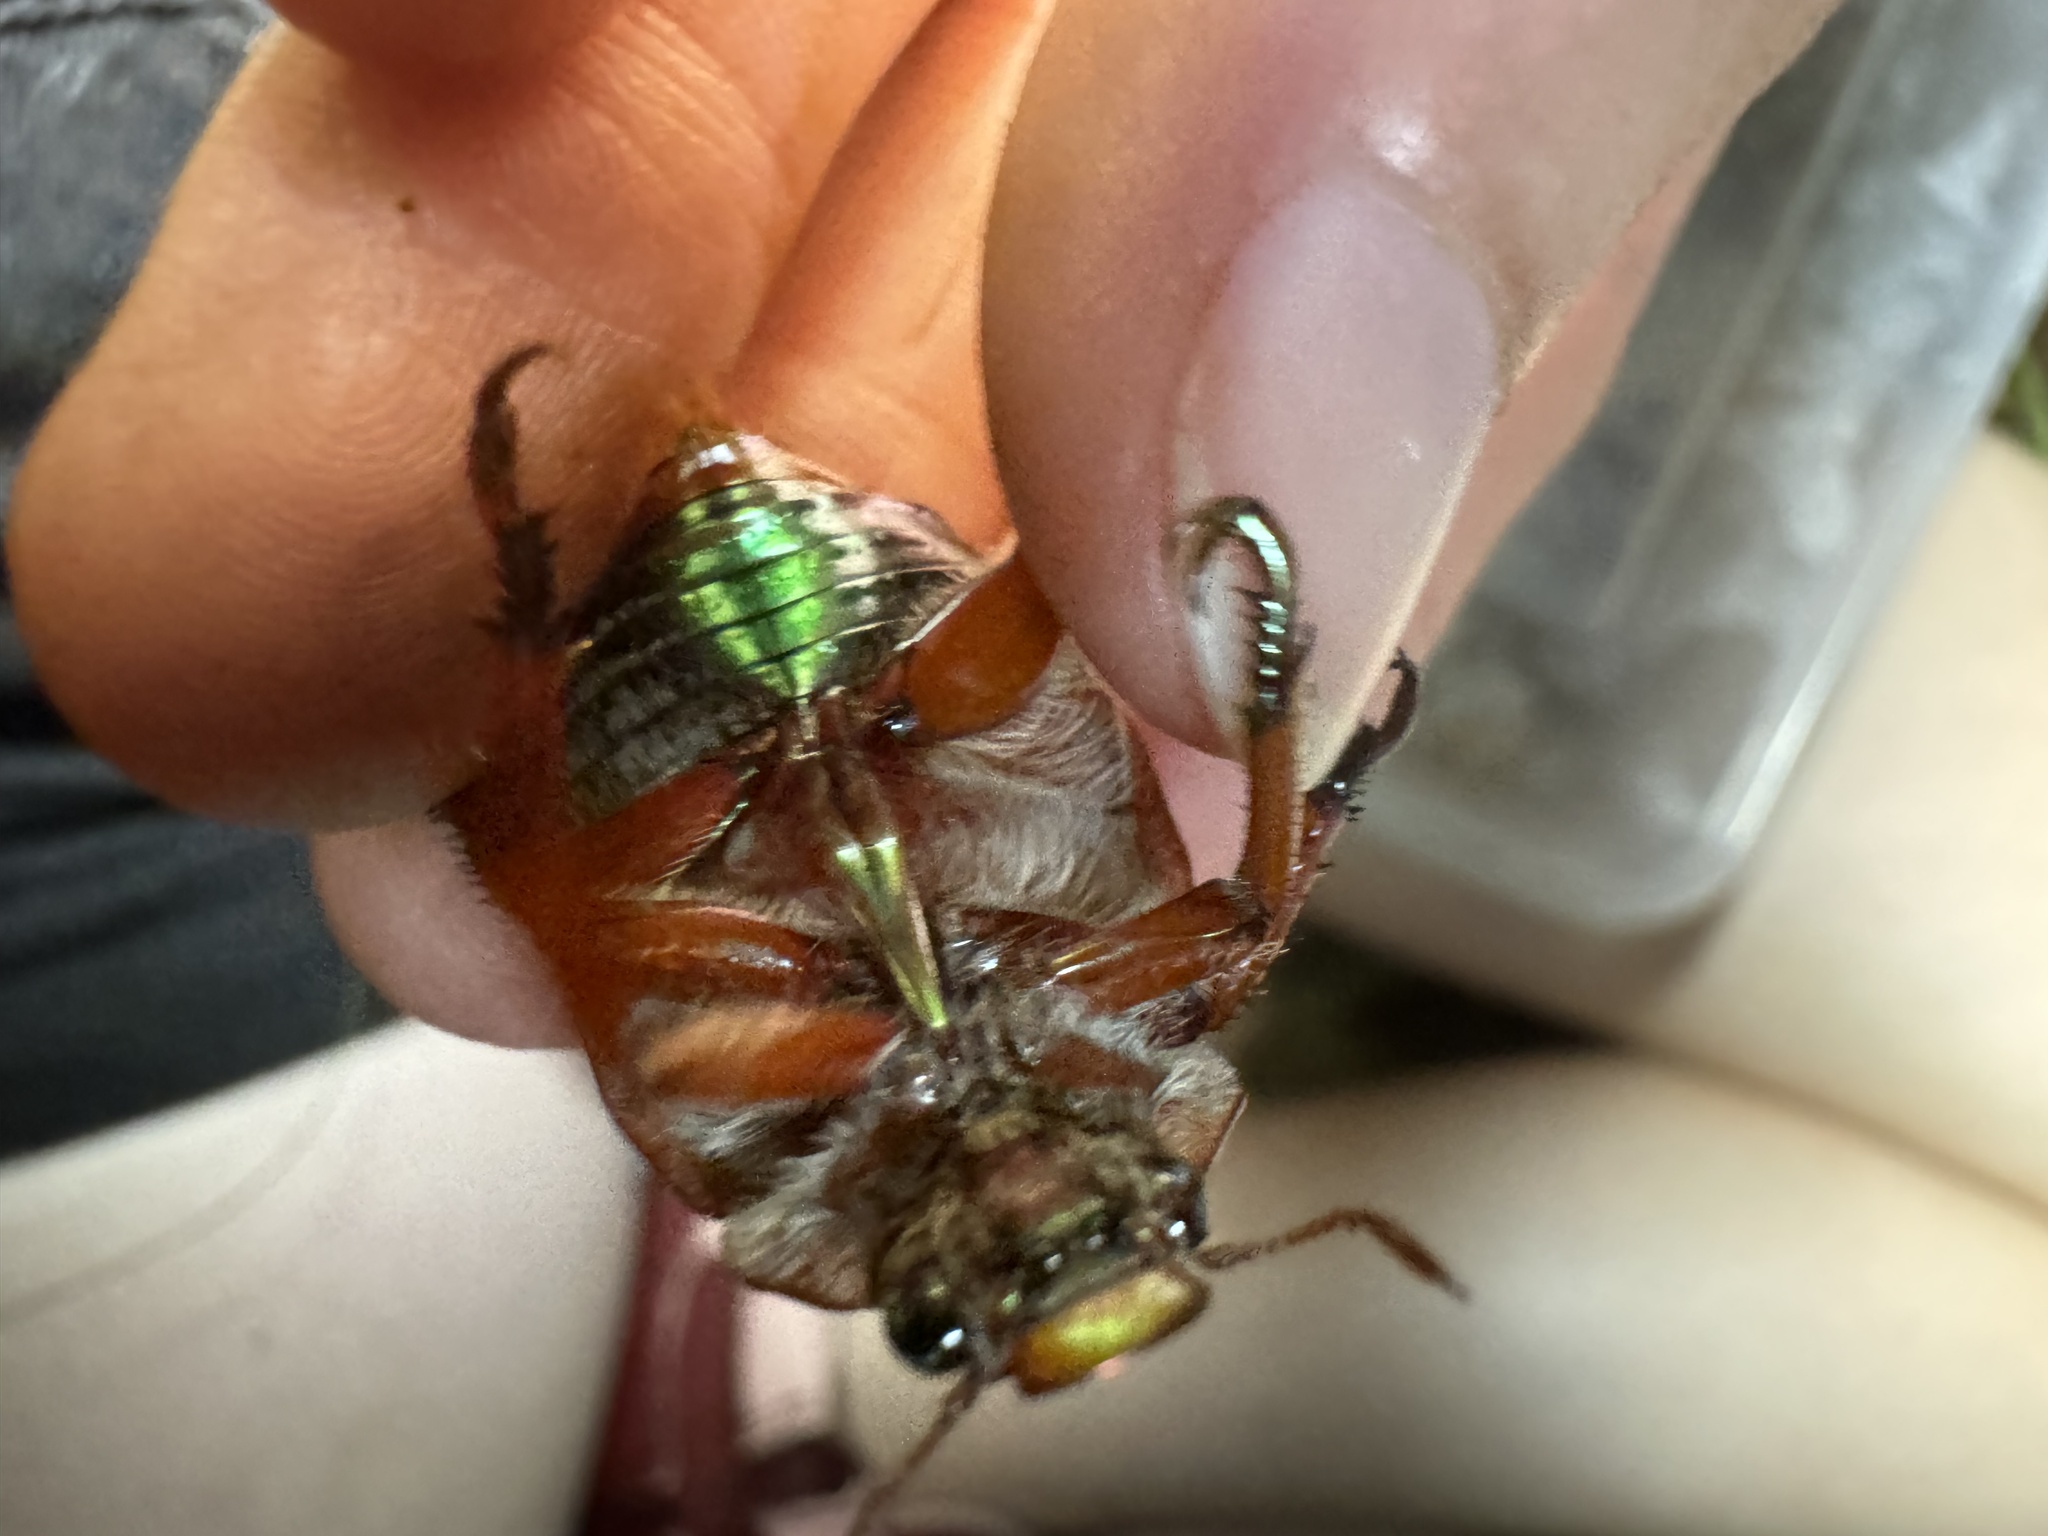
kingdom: Animalia
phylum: Arthropoda
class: Insecta
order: Coleoptera
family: Scarabaeidae
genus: Anoplognathus
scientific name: Anoplognathus olivieri
